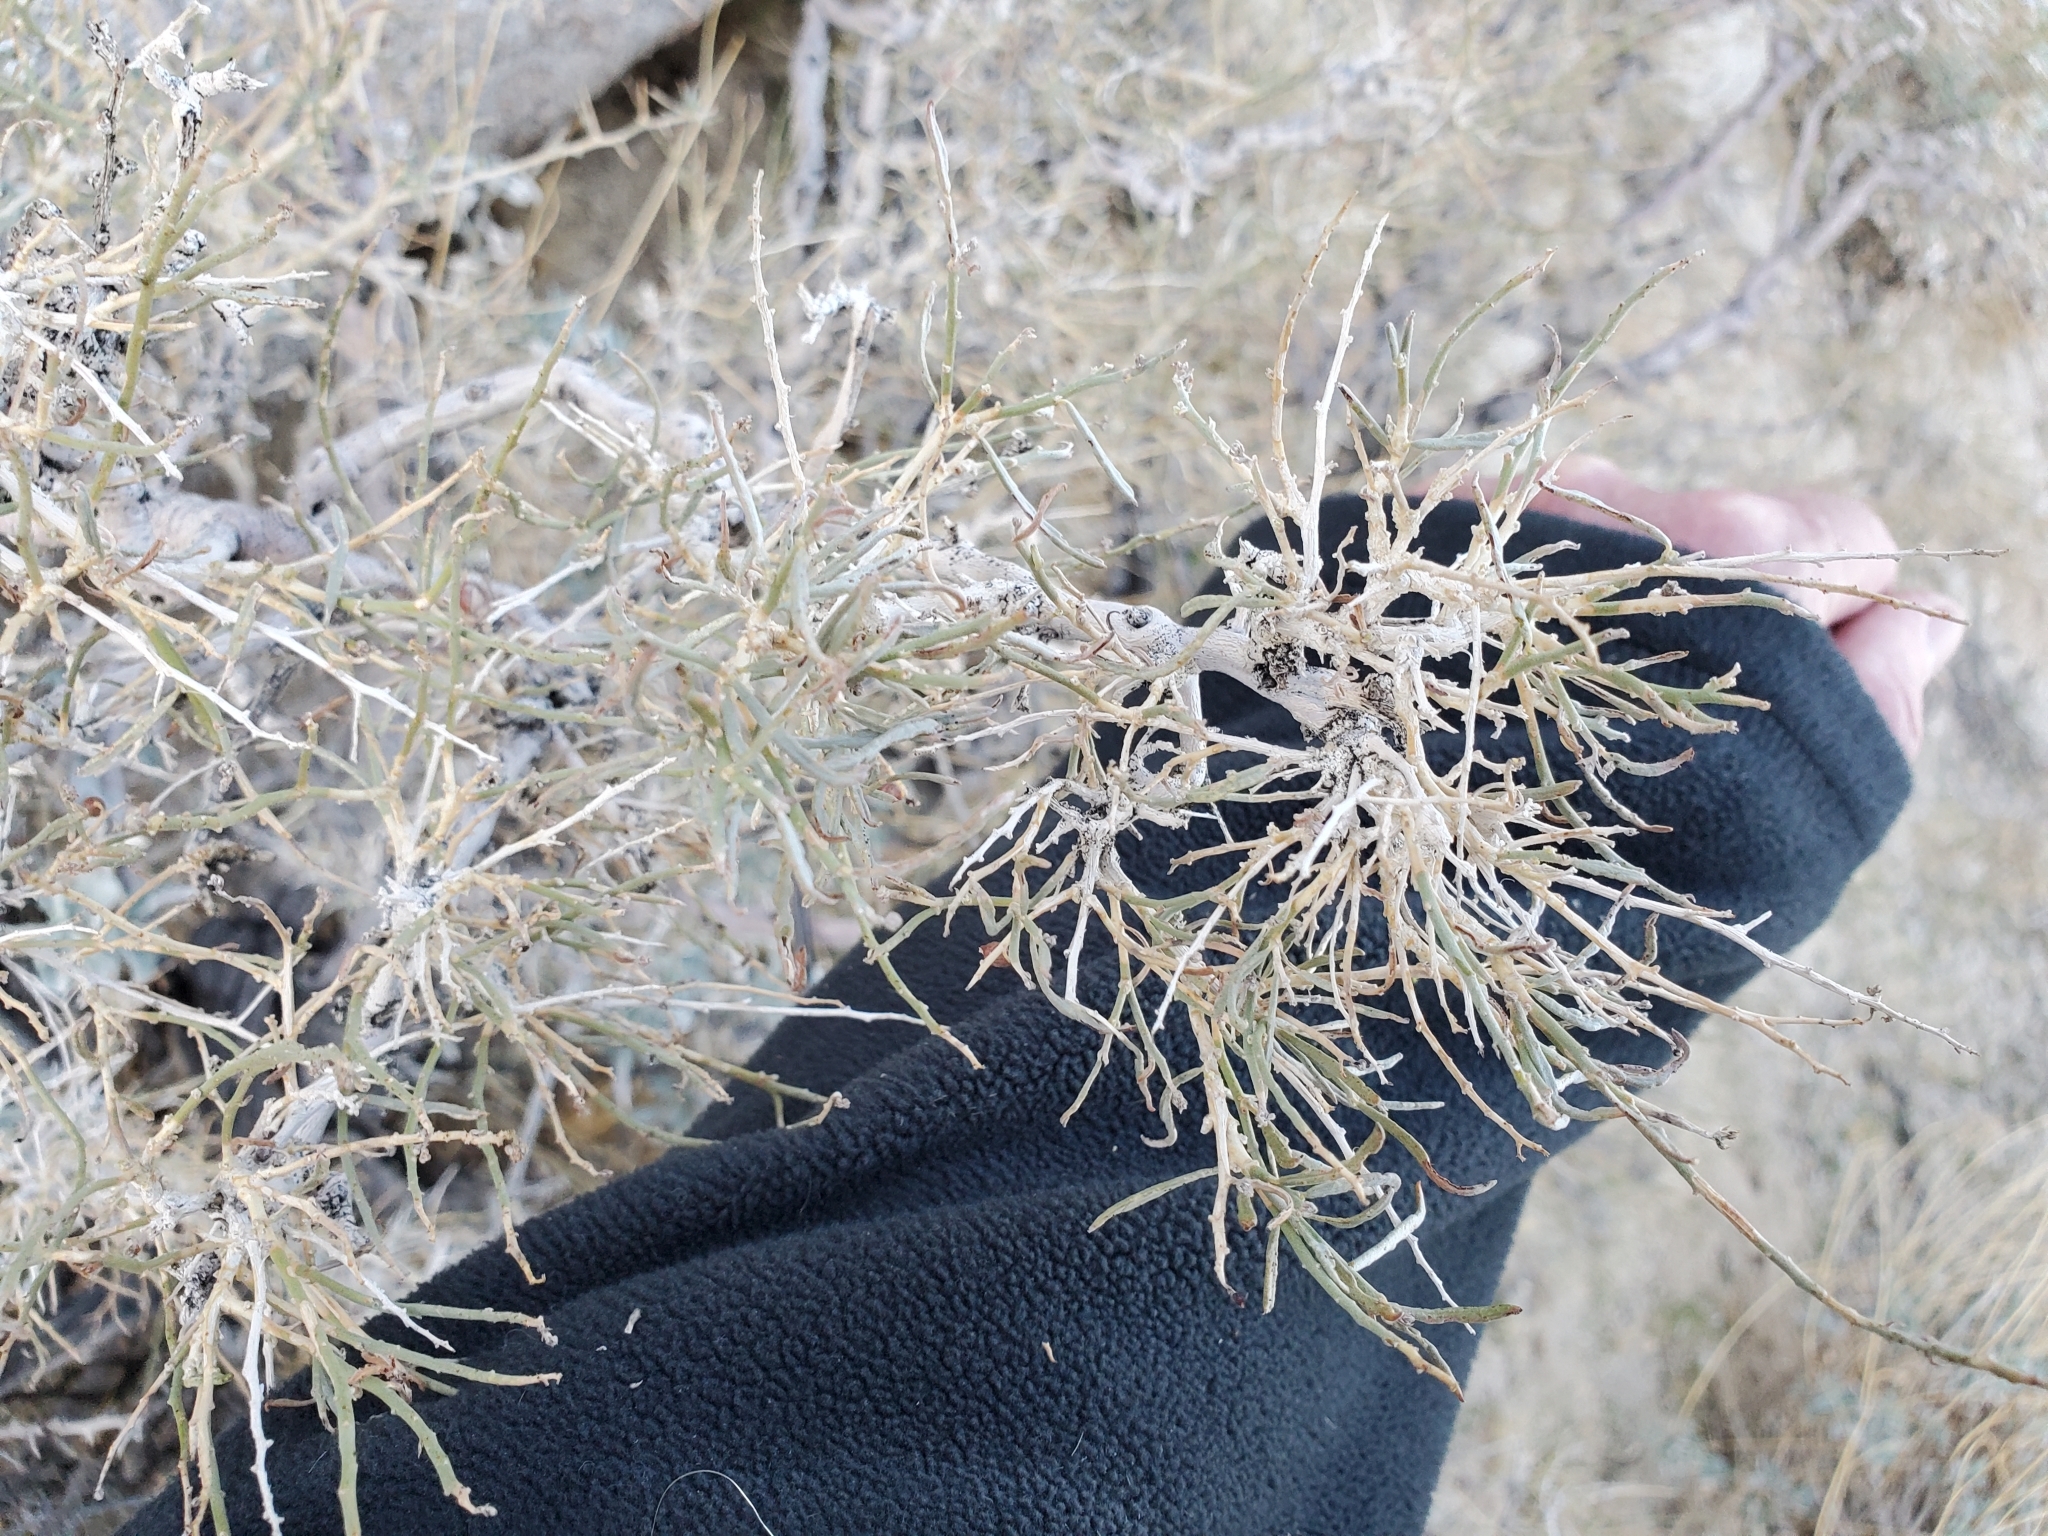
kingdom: Plantae
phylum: Tracheophyta
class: Magnoliopsida
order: Fabales
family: Fabaceae
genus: Psorothamnus
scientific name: Psorothamnus schottii
